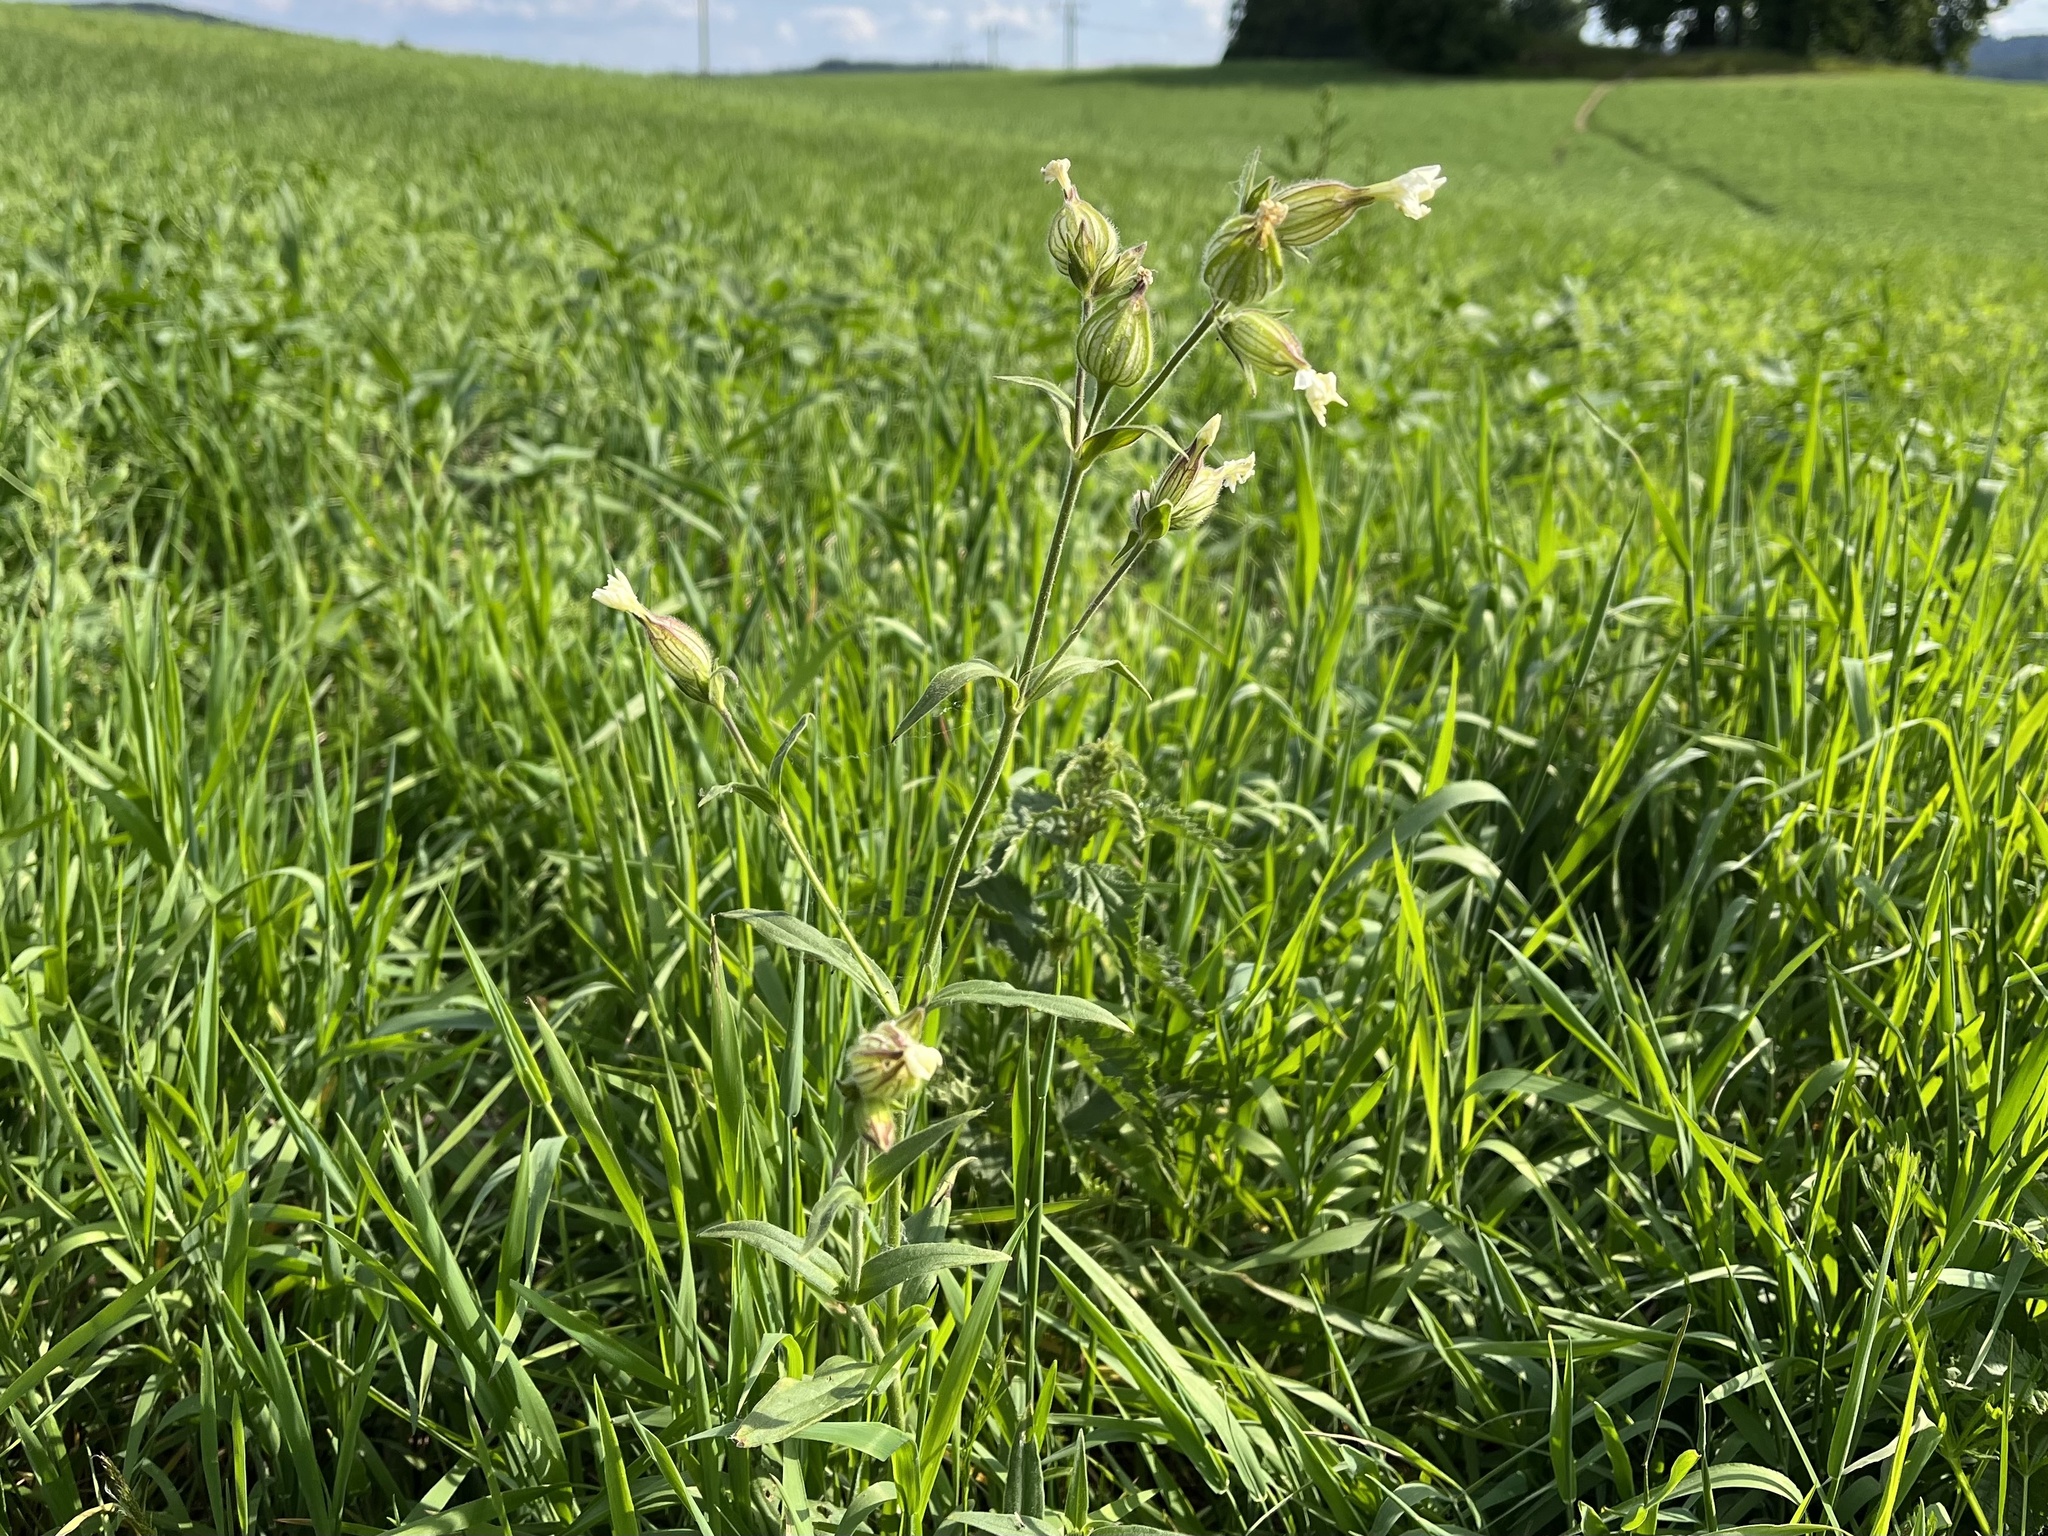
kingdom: Plantae
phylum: Tracheophyta
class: Magnoliopsida
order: Caryophyllales
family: Caryophyllaceae
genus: Silene
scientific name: Silene latifolia
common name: White campion
